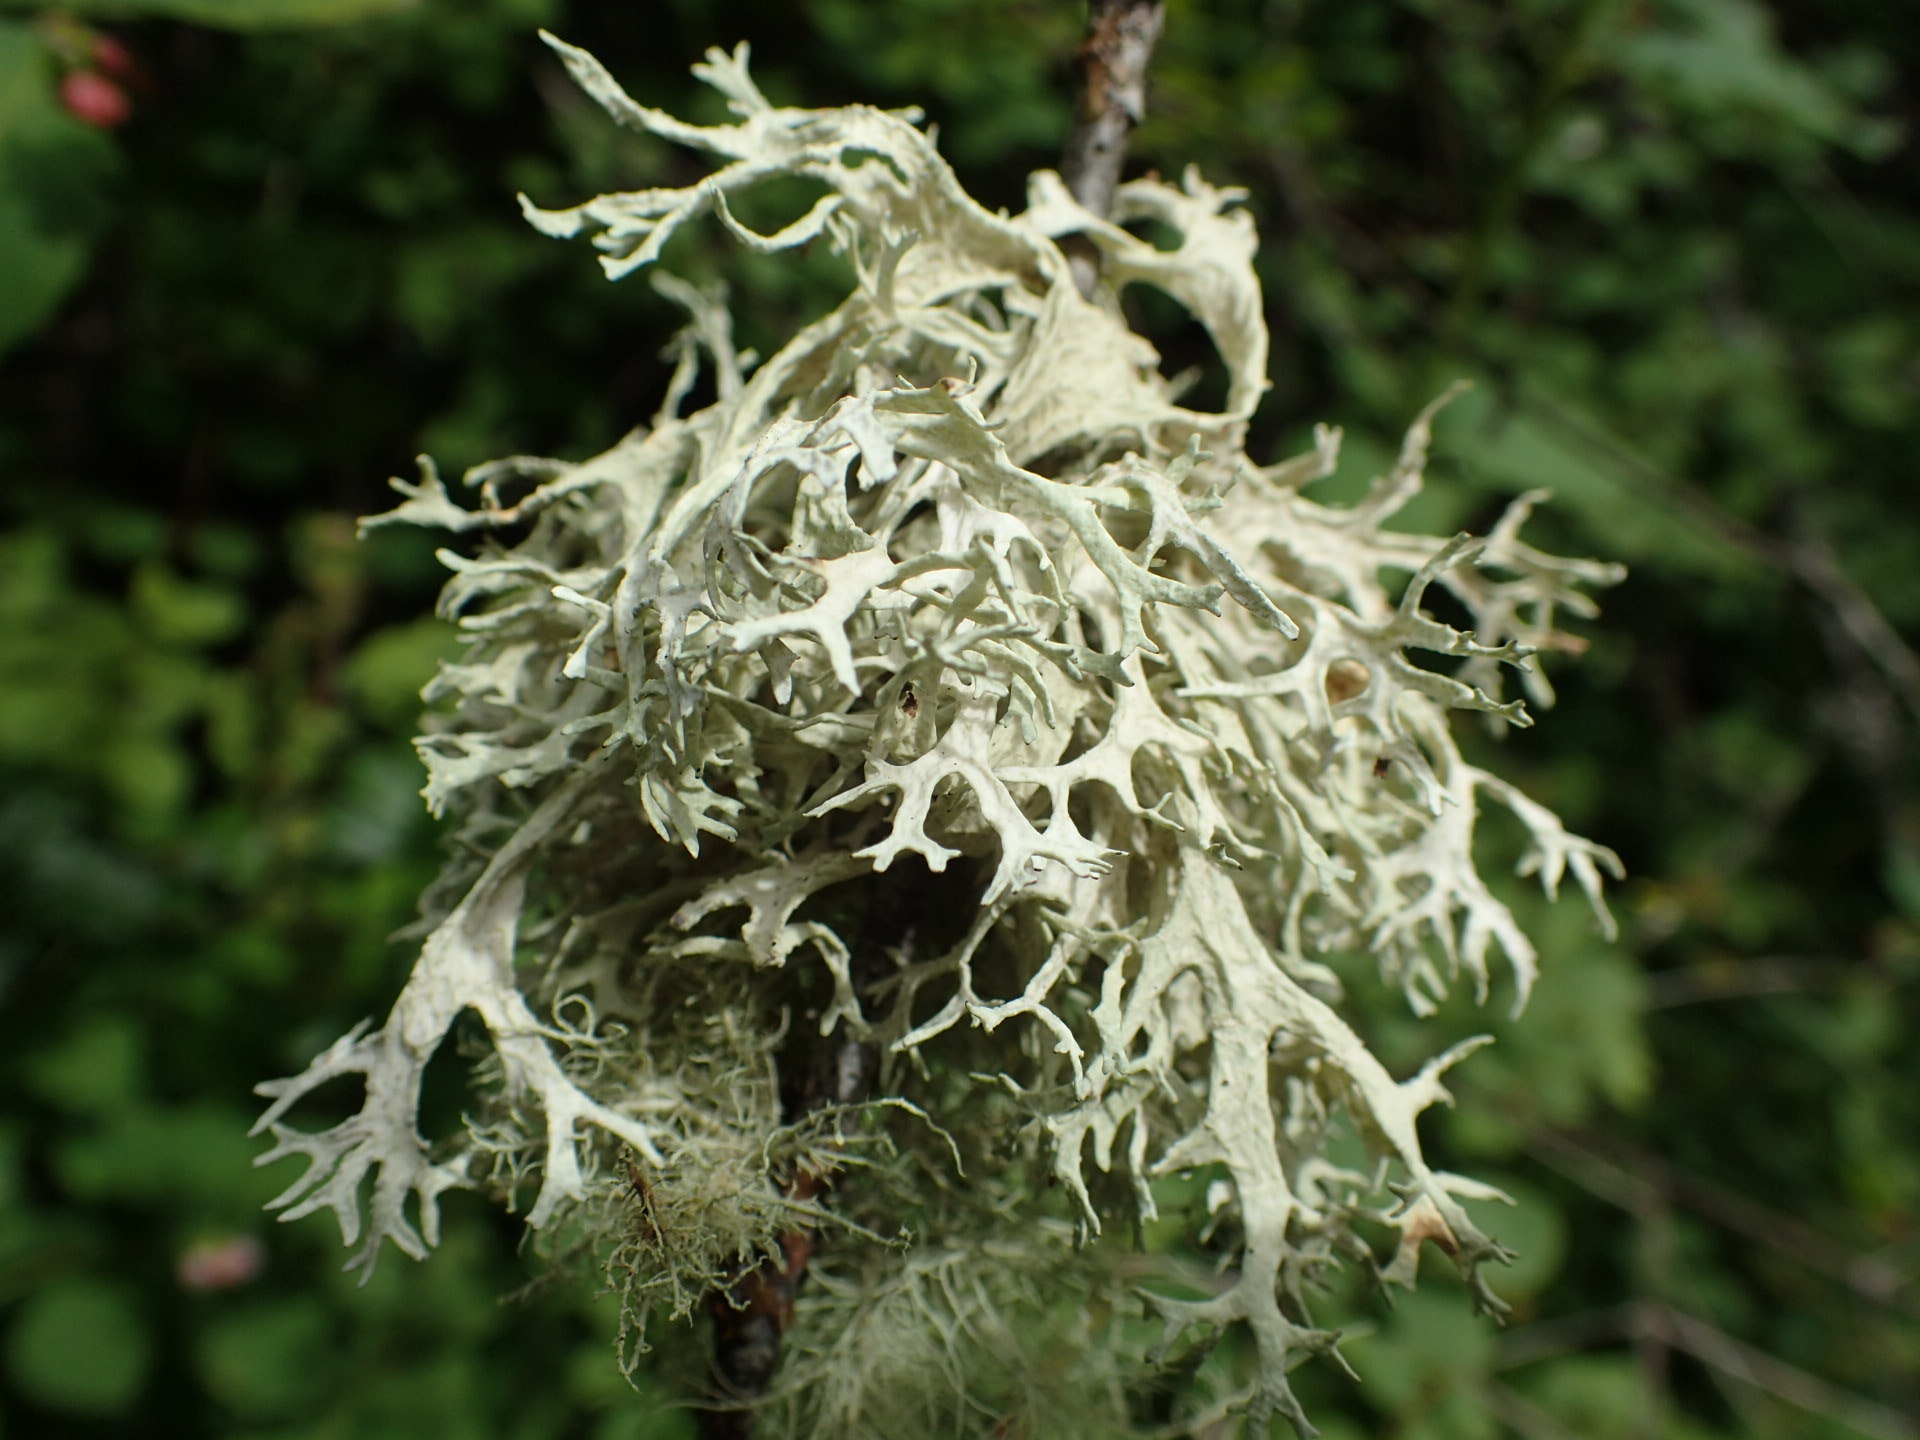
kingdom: Fungi
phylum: Ascomycota
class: Lecanoromycetes
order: Lecanorales
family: Parmeliaceae
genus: Evernia
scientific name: Evernia prunastri
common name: Oak moss
